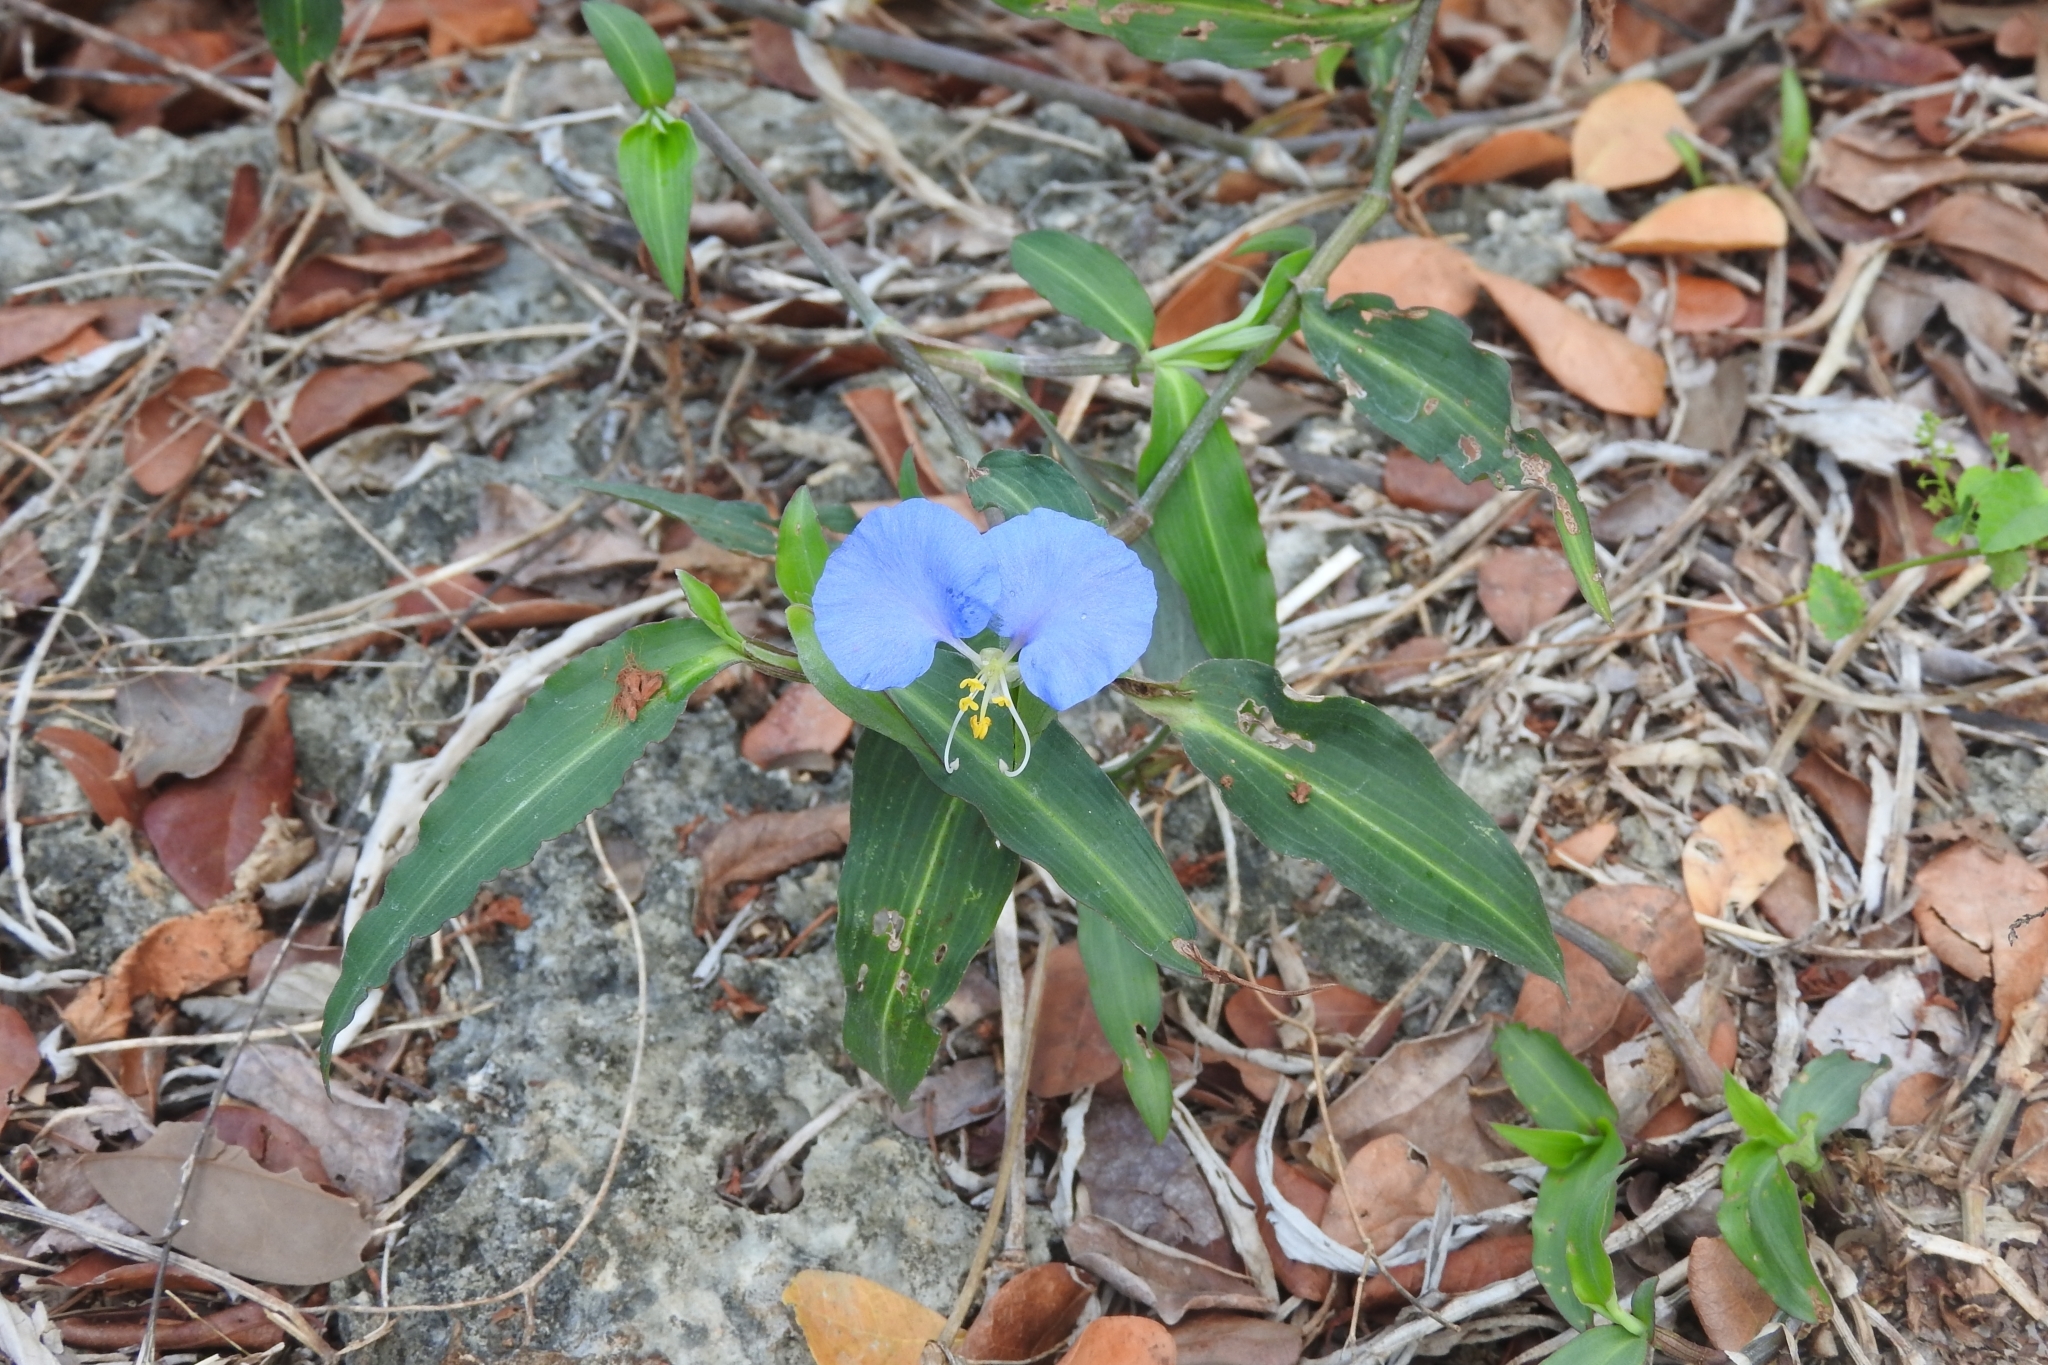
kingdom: Plantae
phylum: Tracheophyta
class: Liliopsida
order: Commelinales
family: Commelinaceae
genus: Commelina
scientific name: Commelina erecta
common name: Blousel blommetjie
